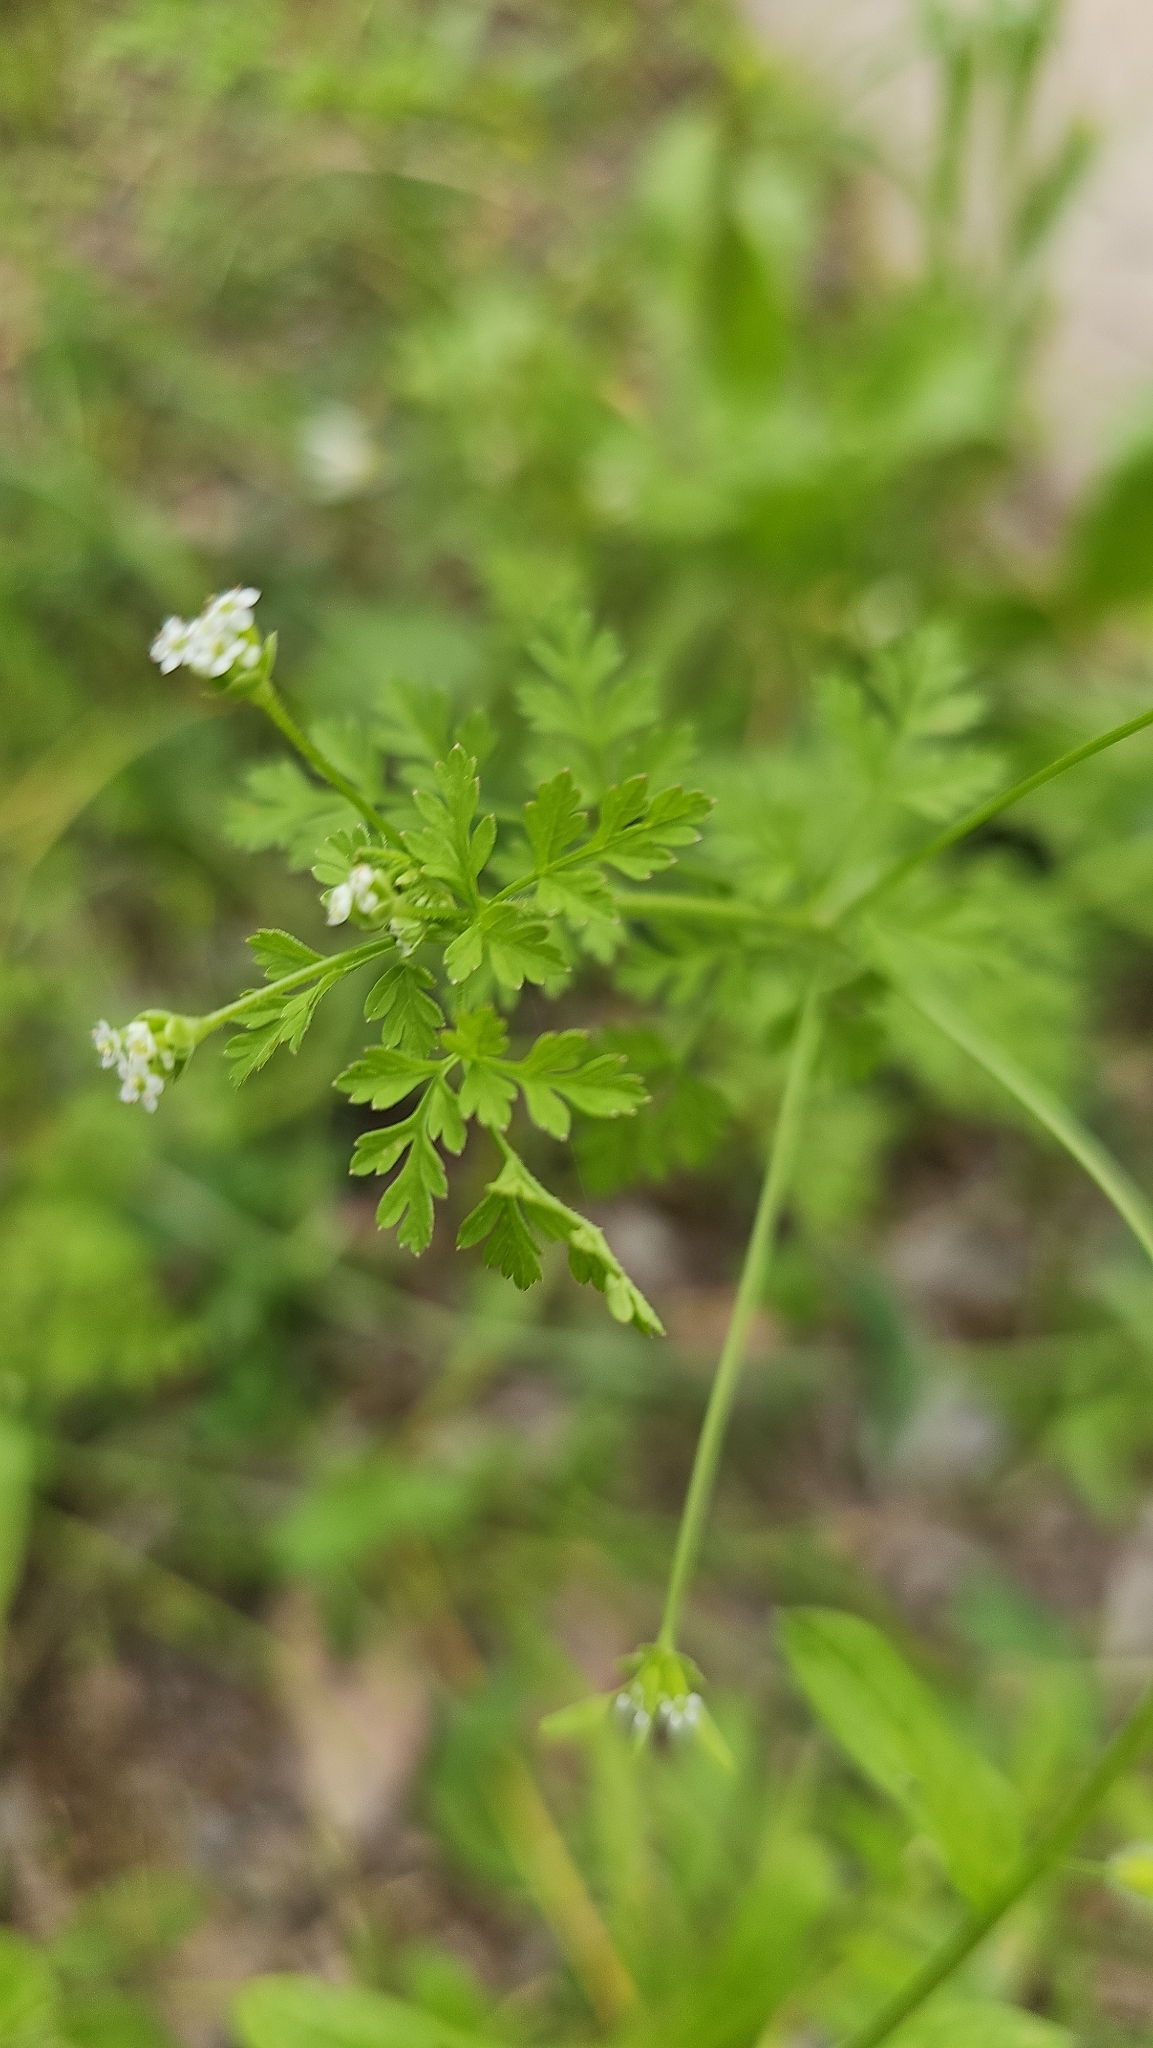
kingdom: Plantae
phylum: Tracheophyta
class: Magnoliopsida
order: Apiales
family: Apiaceae
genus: Chaerophyllum
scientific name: Chaerophyllum tainturieri
